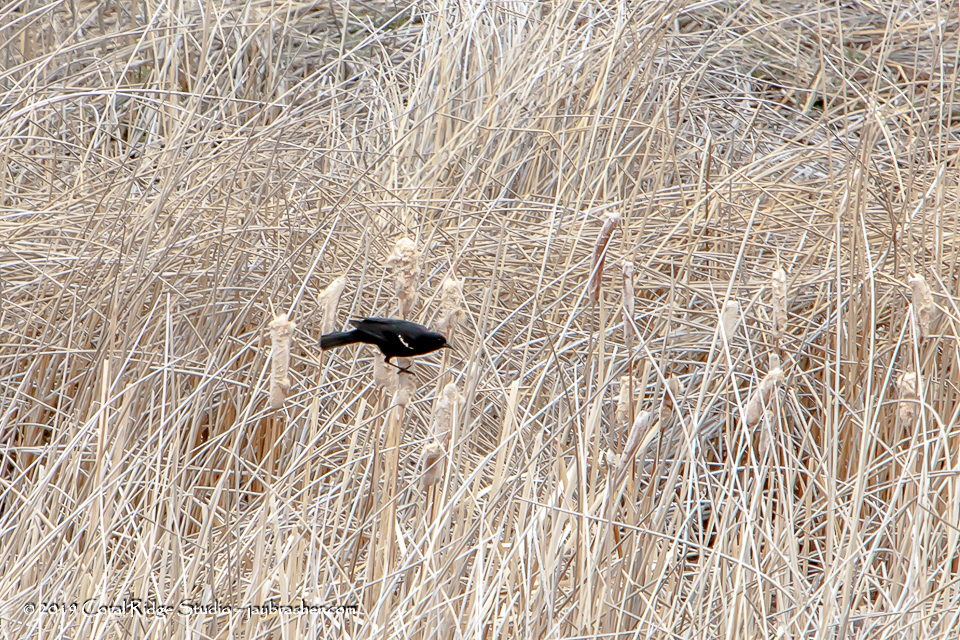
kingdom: Animalia
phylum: Chordata
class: Aves
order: Passeriformes
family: Icteridae
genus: Agelaius
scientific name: Agelaius phoeniceus
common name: Red-winged blackbird
